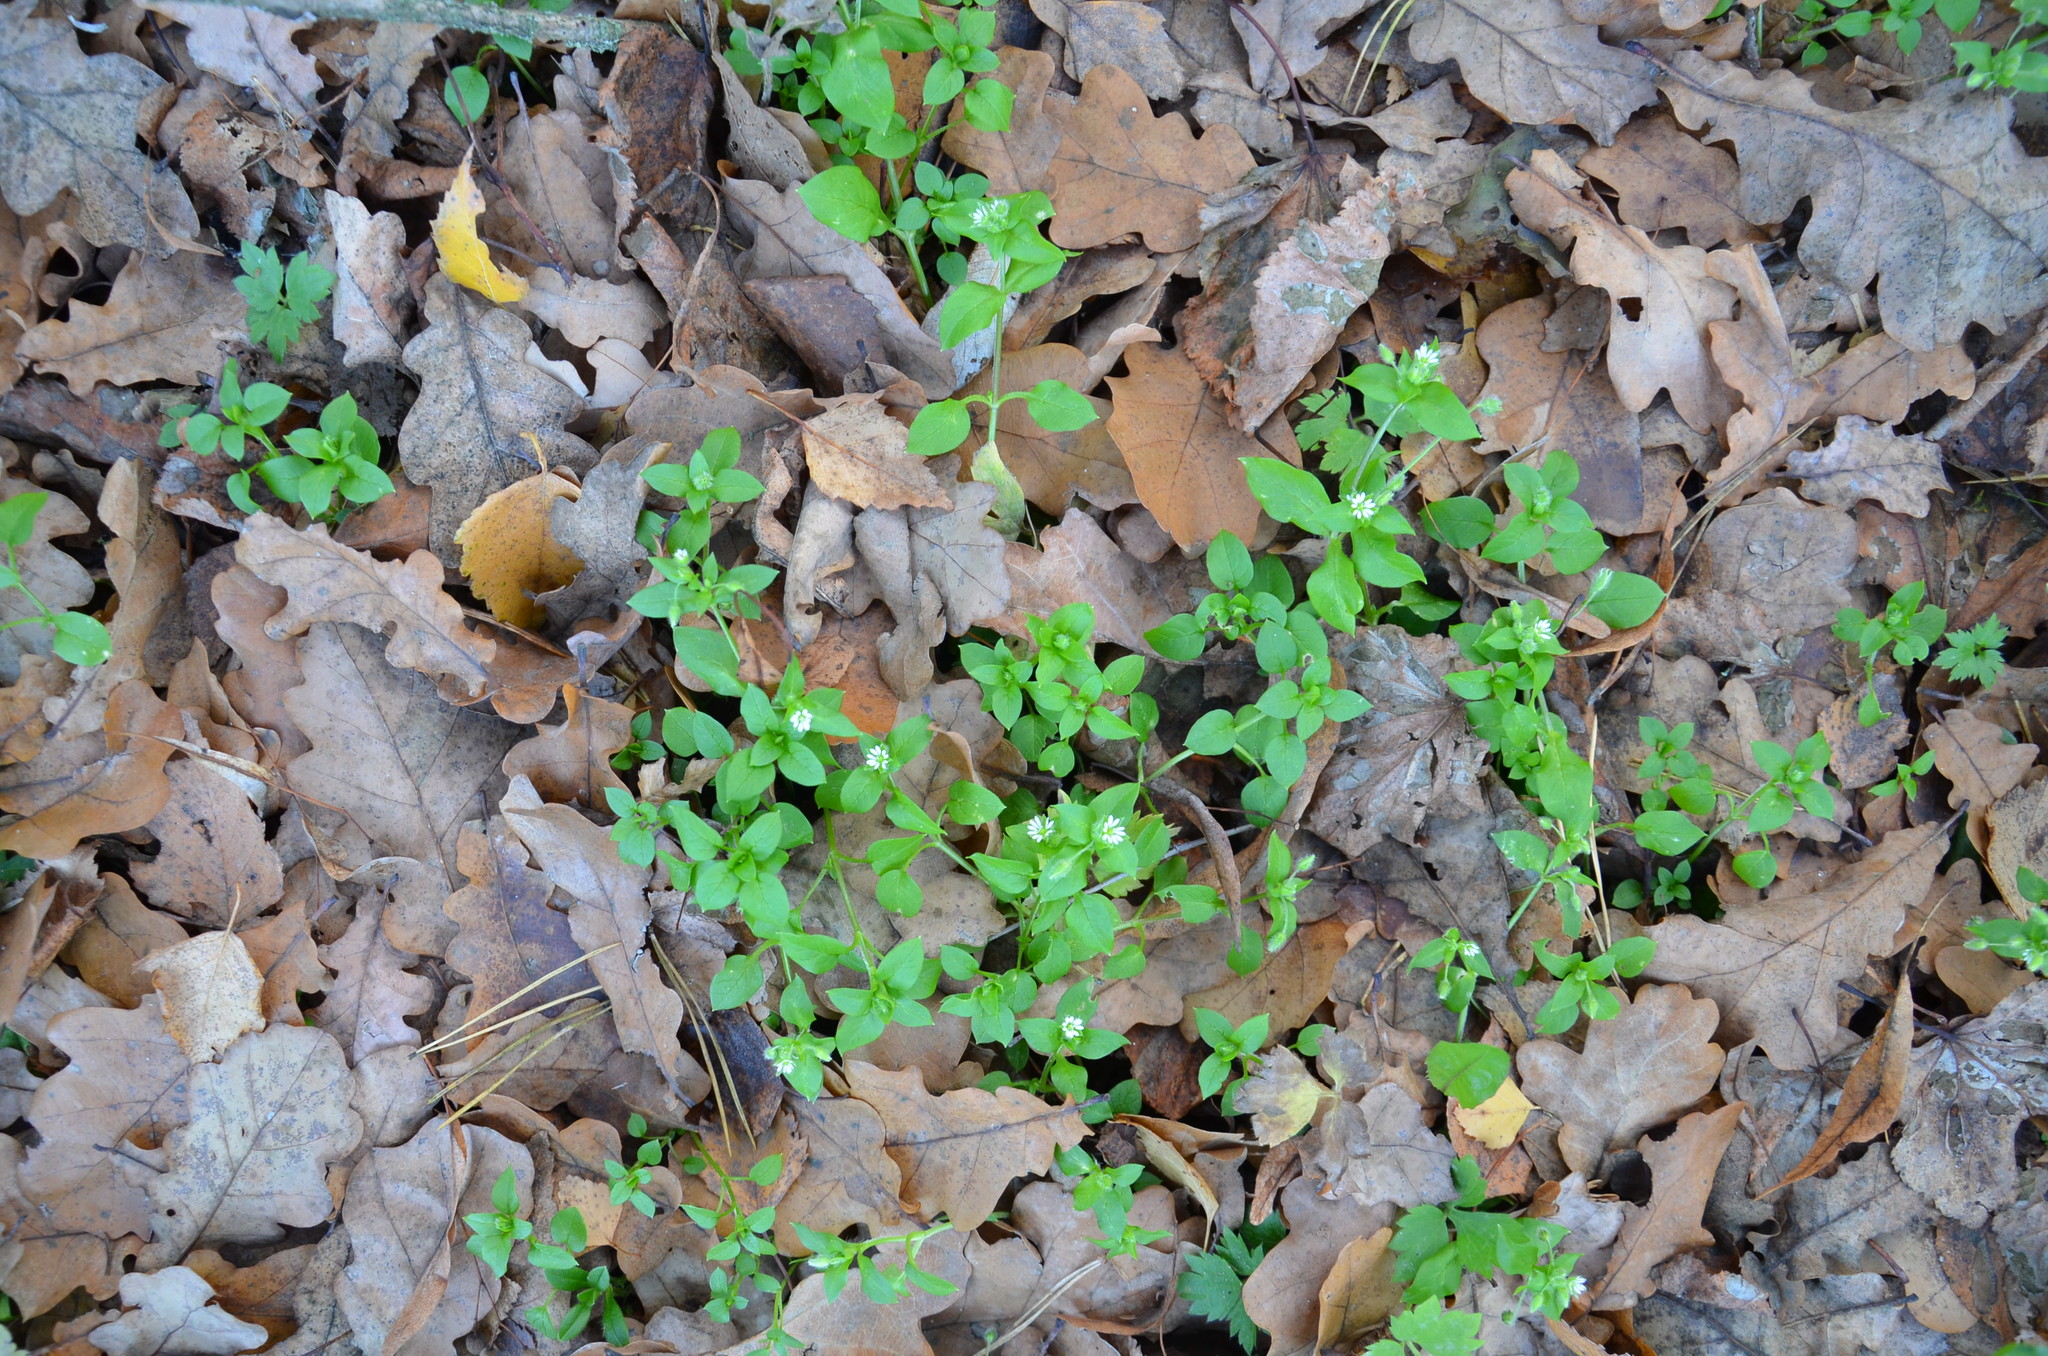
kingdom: Plantae
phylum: Tracheophyta
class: Magnoliopsida
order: Caryophyllales
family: Caryophyllaceae
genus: Stellaria
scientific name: Stellaria media
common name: Common chickweed
